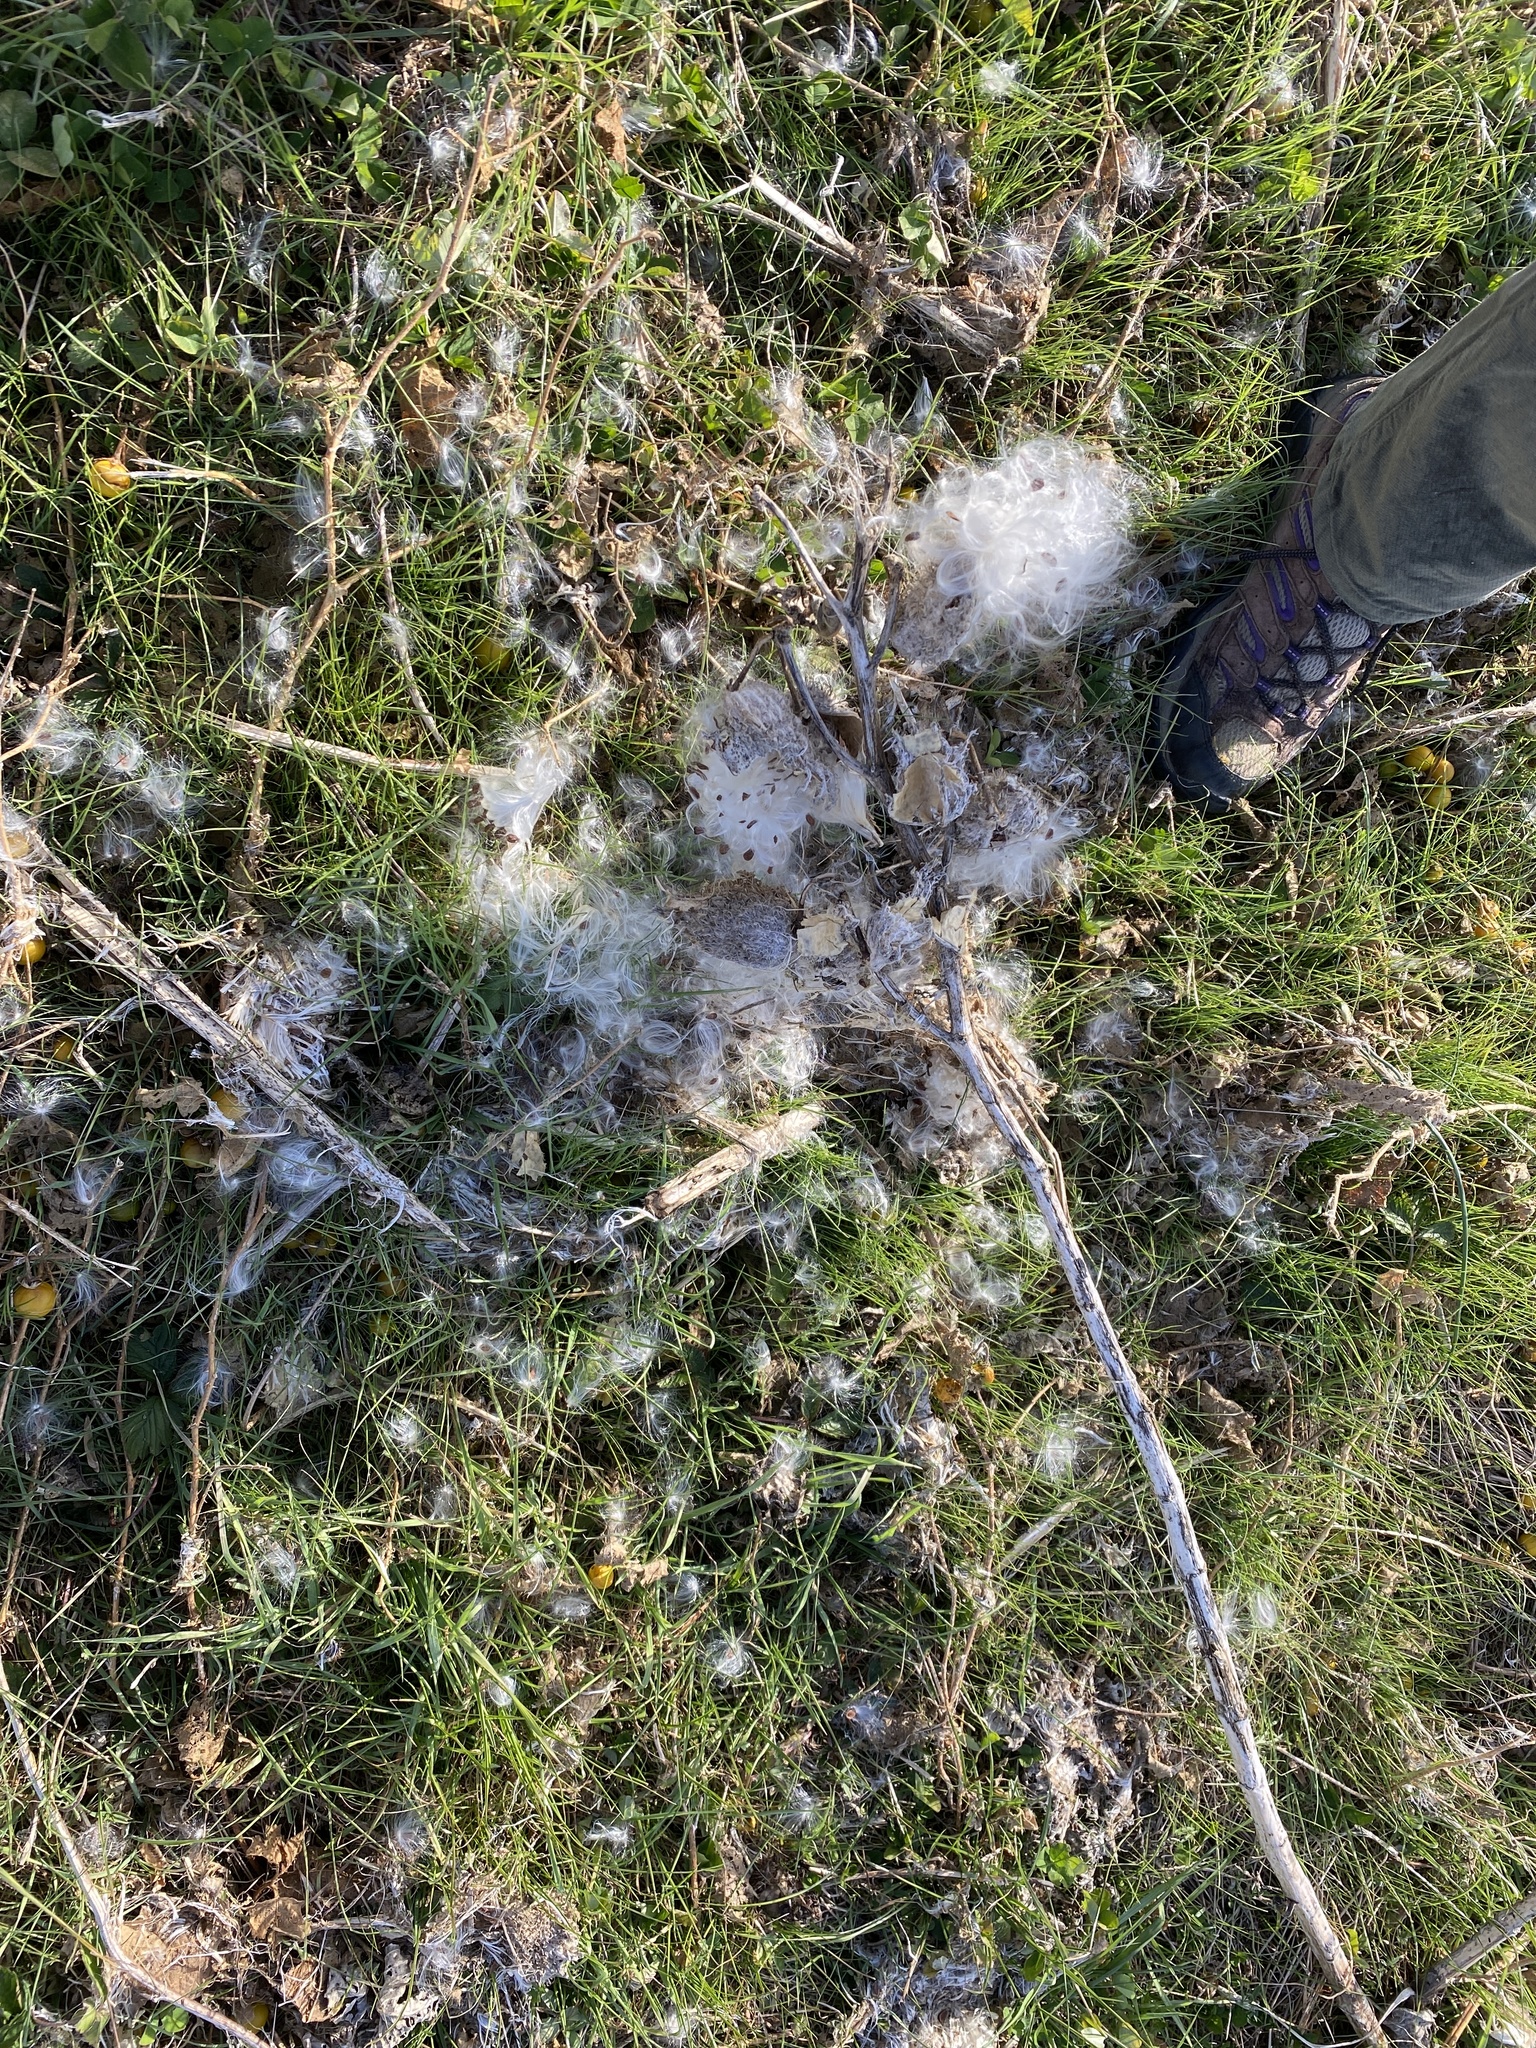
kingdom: Plantae
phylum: Tracheophyta
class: Magnoliopsida
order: Gentianales
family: Apocynaceae
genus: Asclepias
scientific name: Asclepias syriaca
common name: Common milkweed
